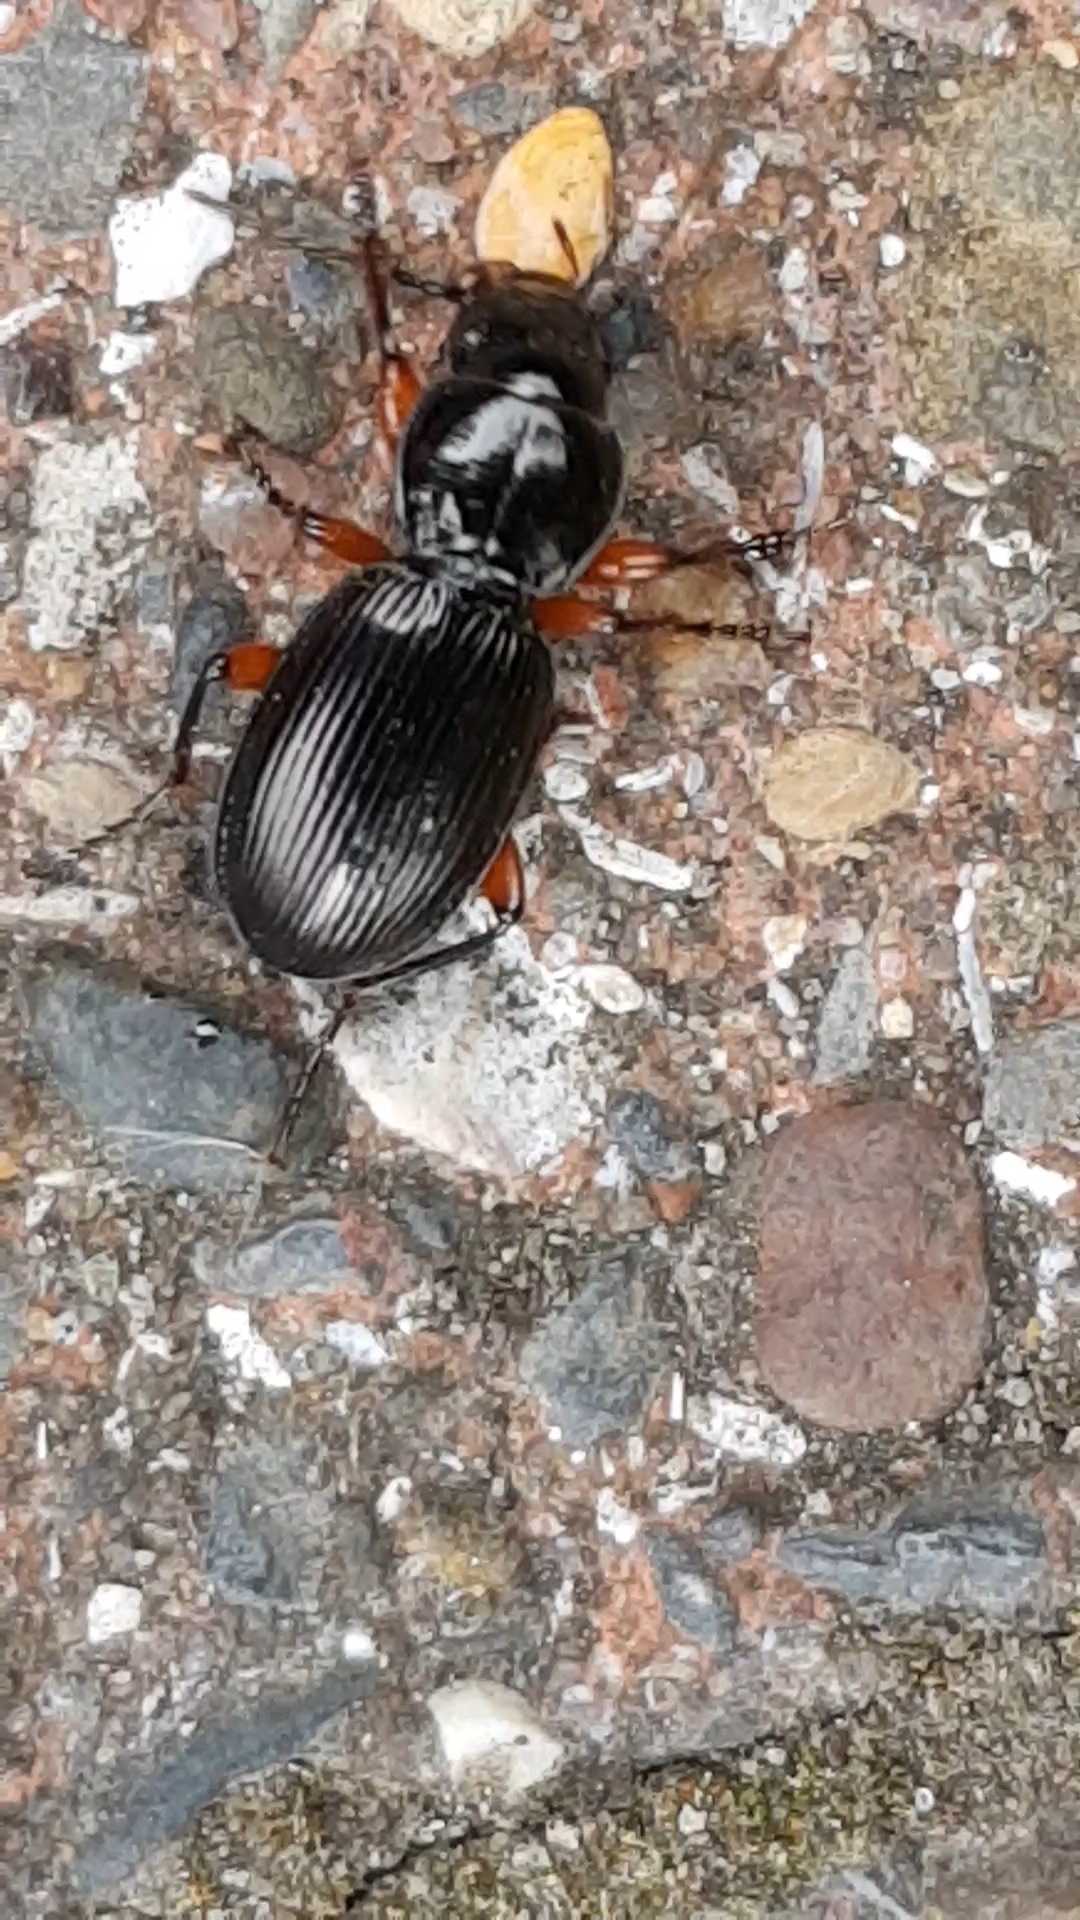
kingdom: Animalia
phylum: Arthropoda
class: Insecta
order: Coleoptera
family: Carabidae
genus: Pterostichus
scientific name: Pterostichus madidus
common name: Black clock
